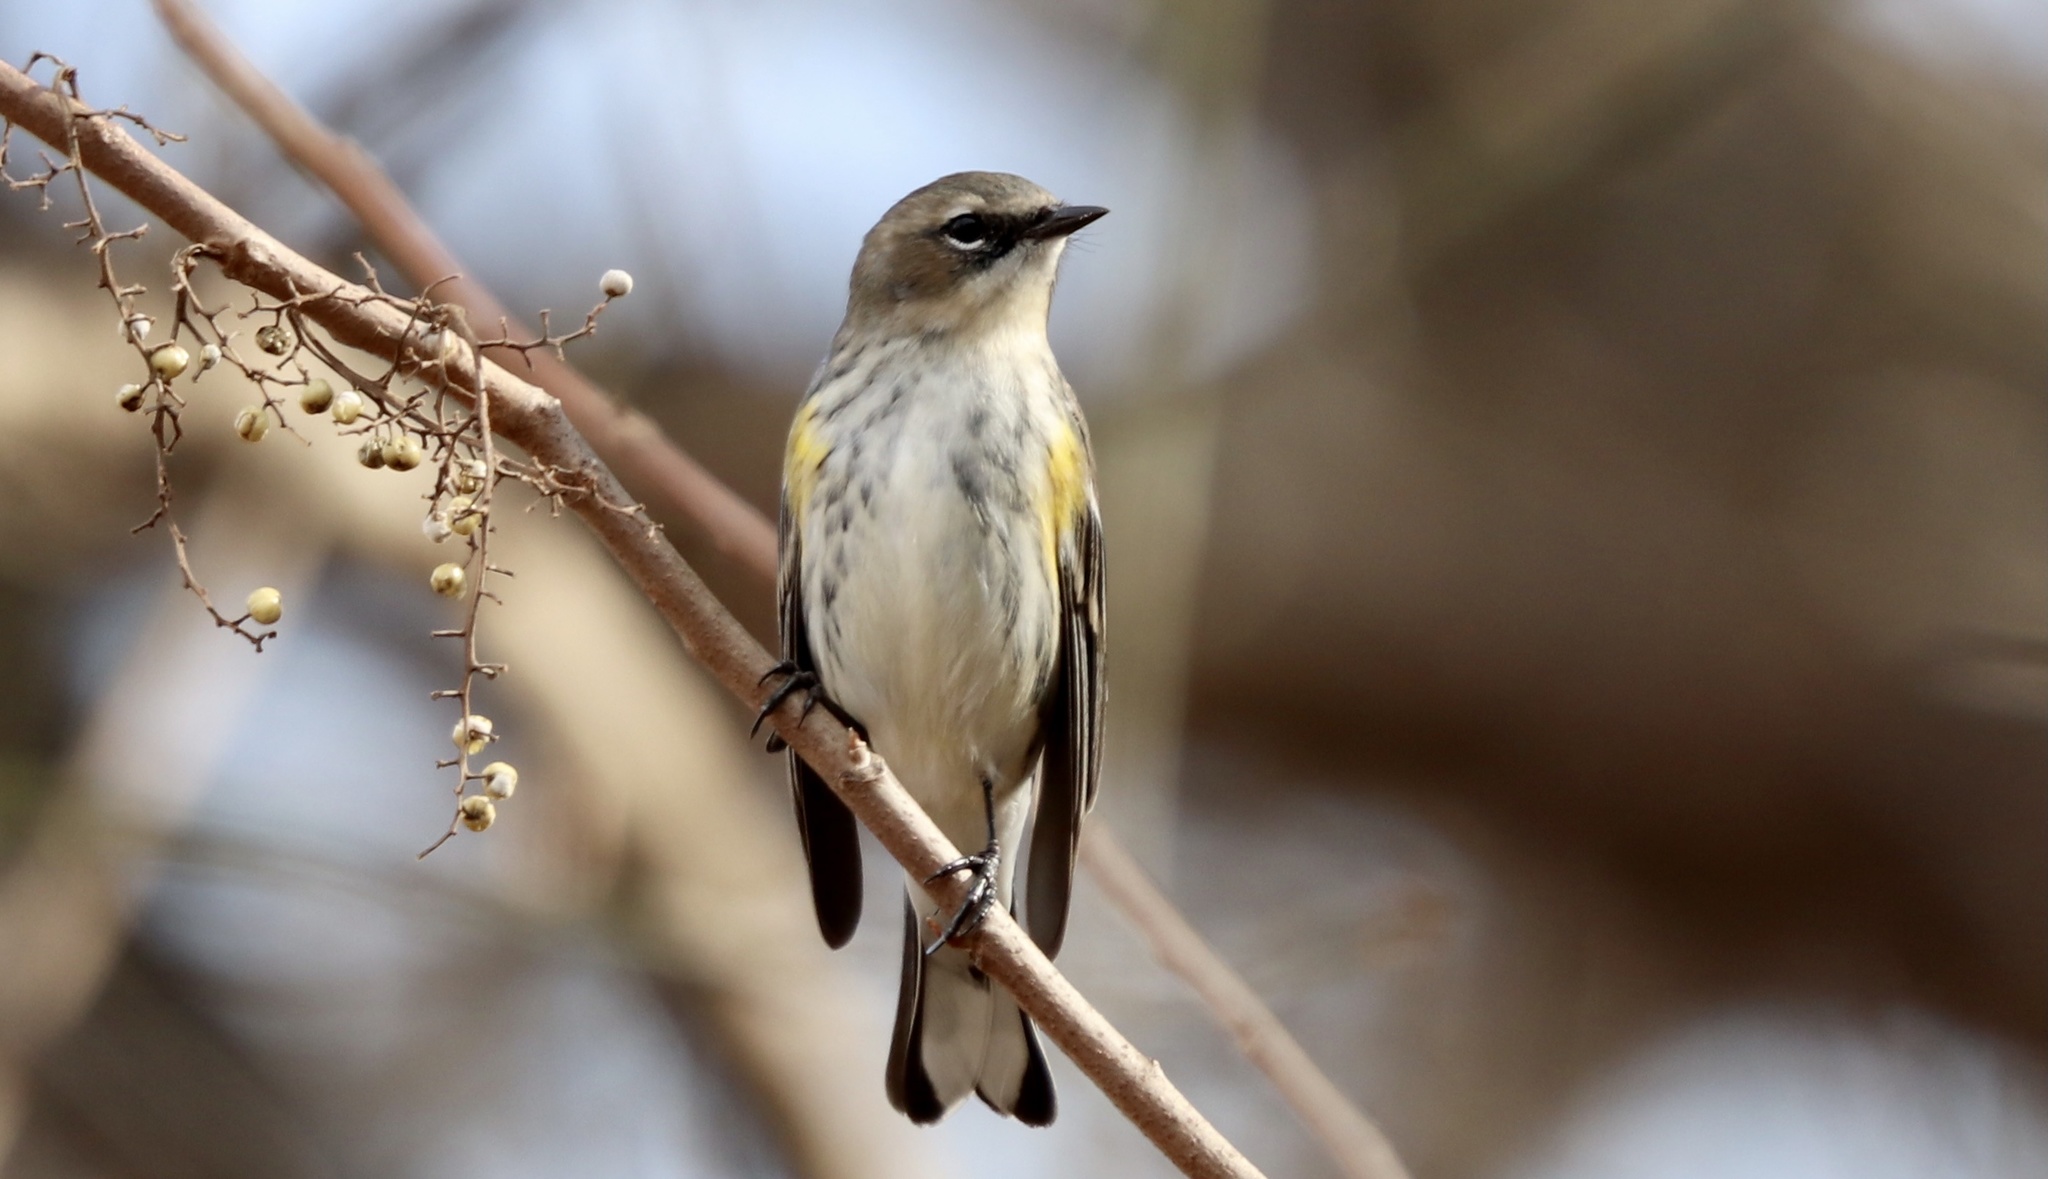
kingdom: Animalia
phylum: Chordata
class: Aves
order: Passeriformes
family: Parulidae
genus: Setophaga
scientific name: Setophaga coronata
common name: Myrtle warbler
